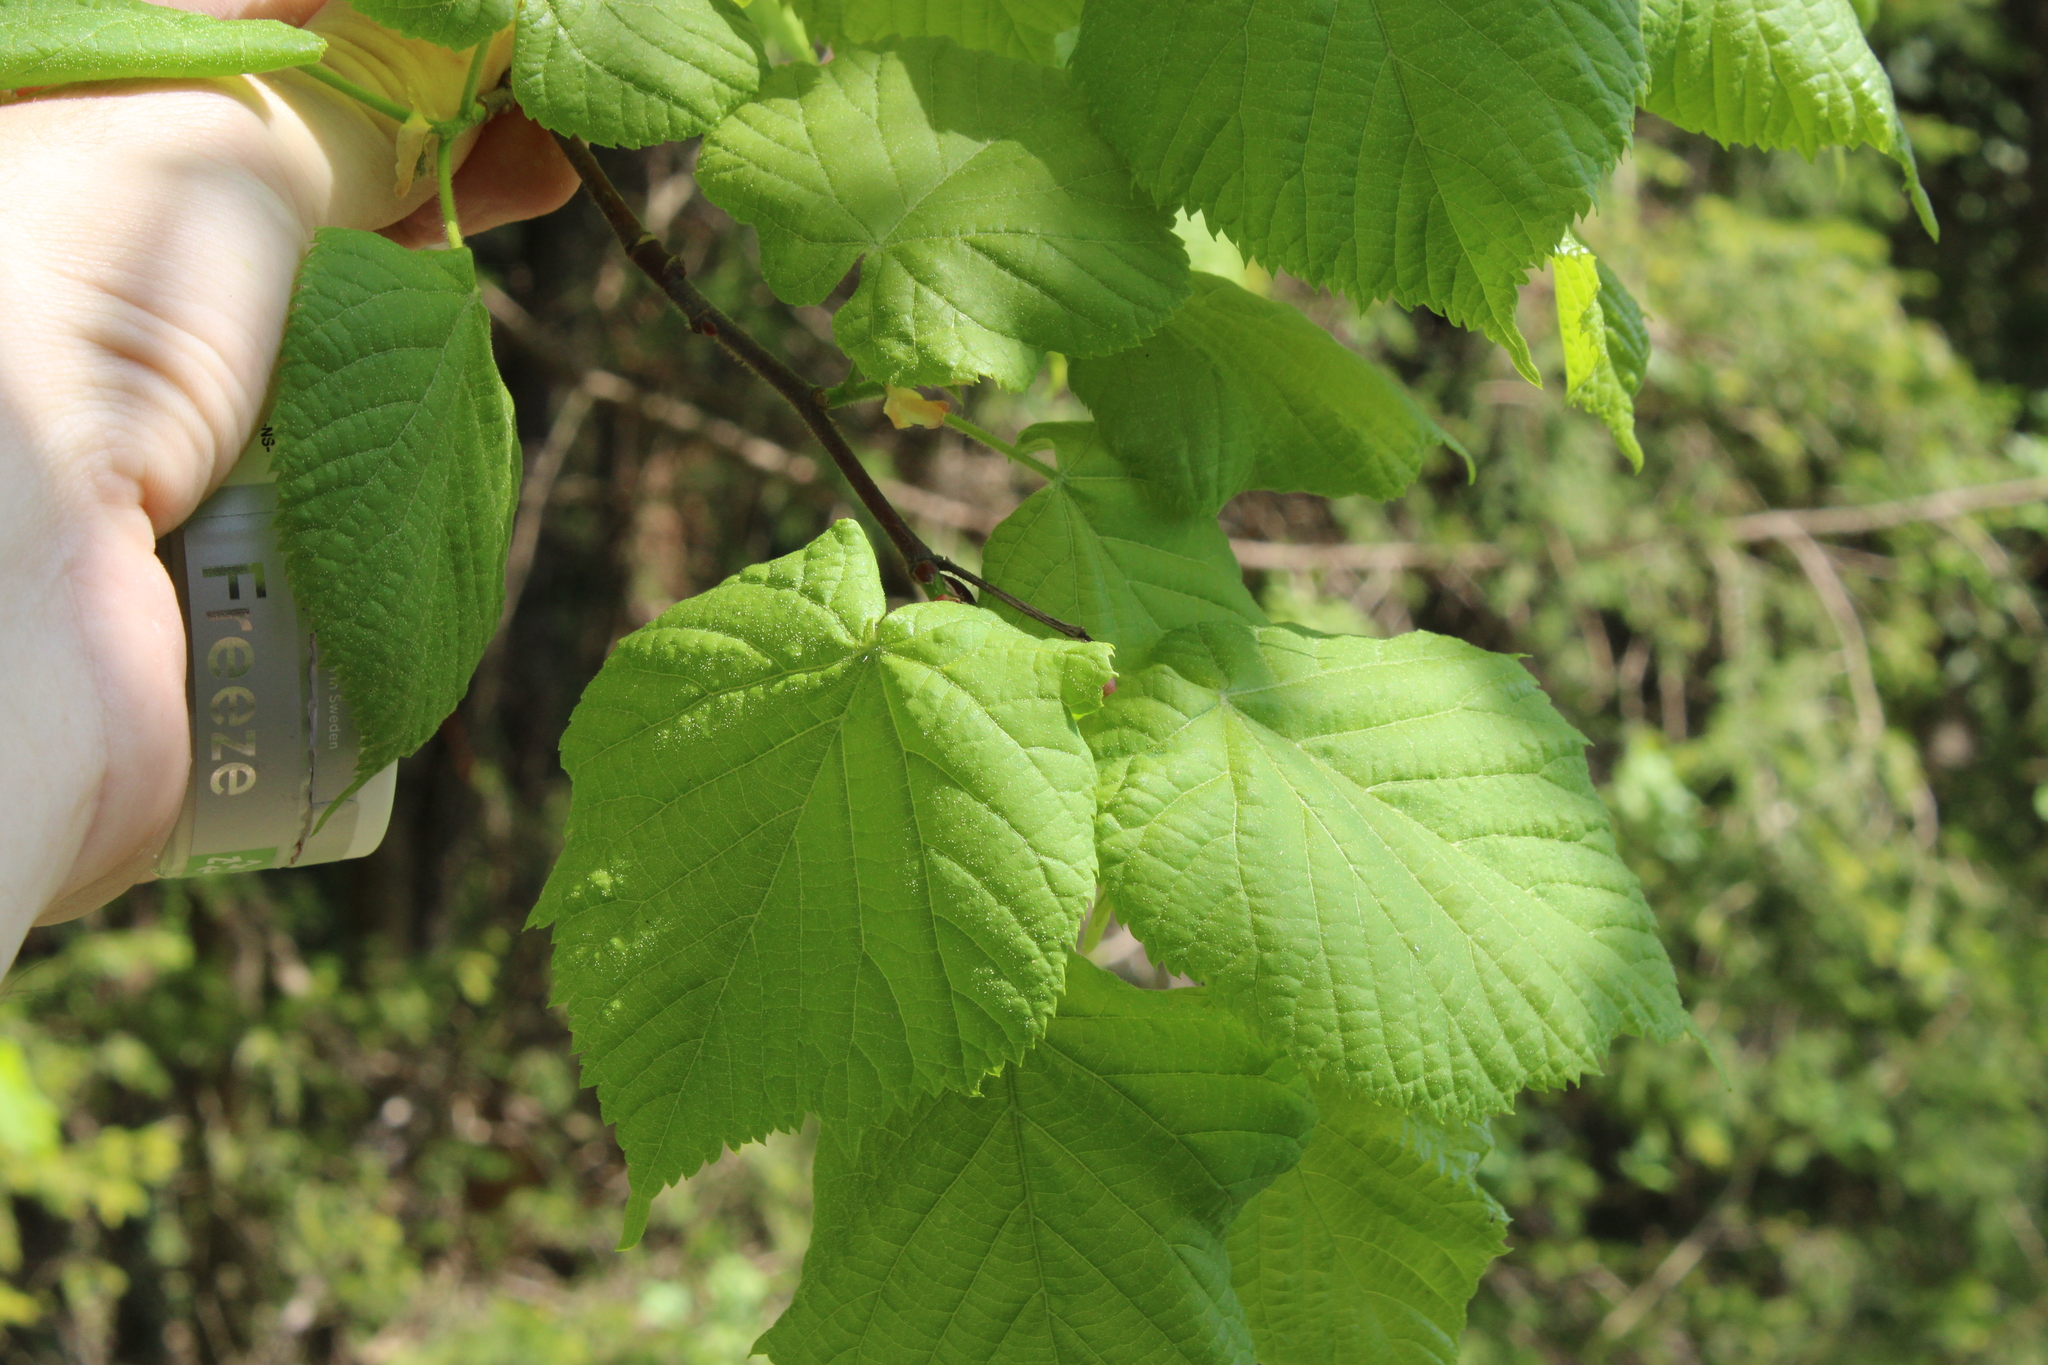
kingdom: Plantae
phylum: Tracheophyta
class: Magnoliopsida
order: Malvales
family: Malvaceae
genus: Tilia
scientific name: Tilia platyphyllos
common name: Large-leaved lime
